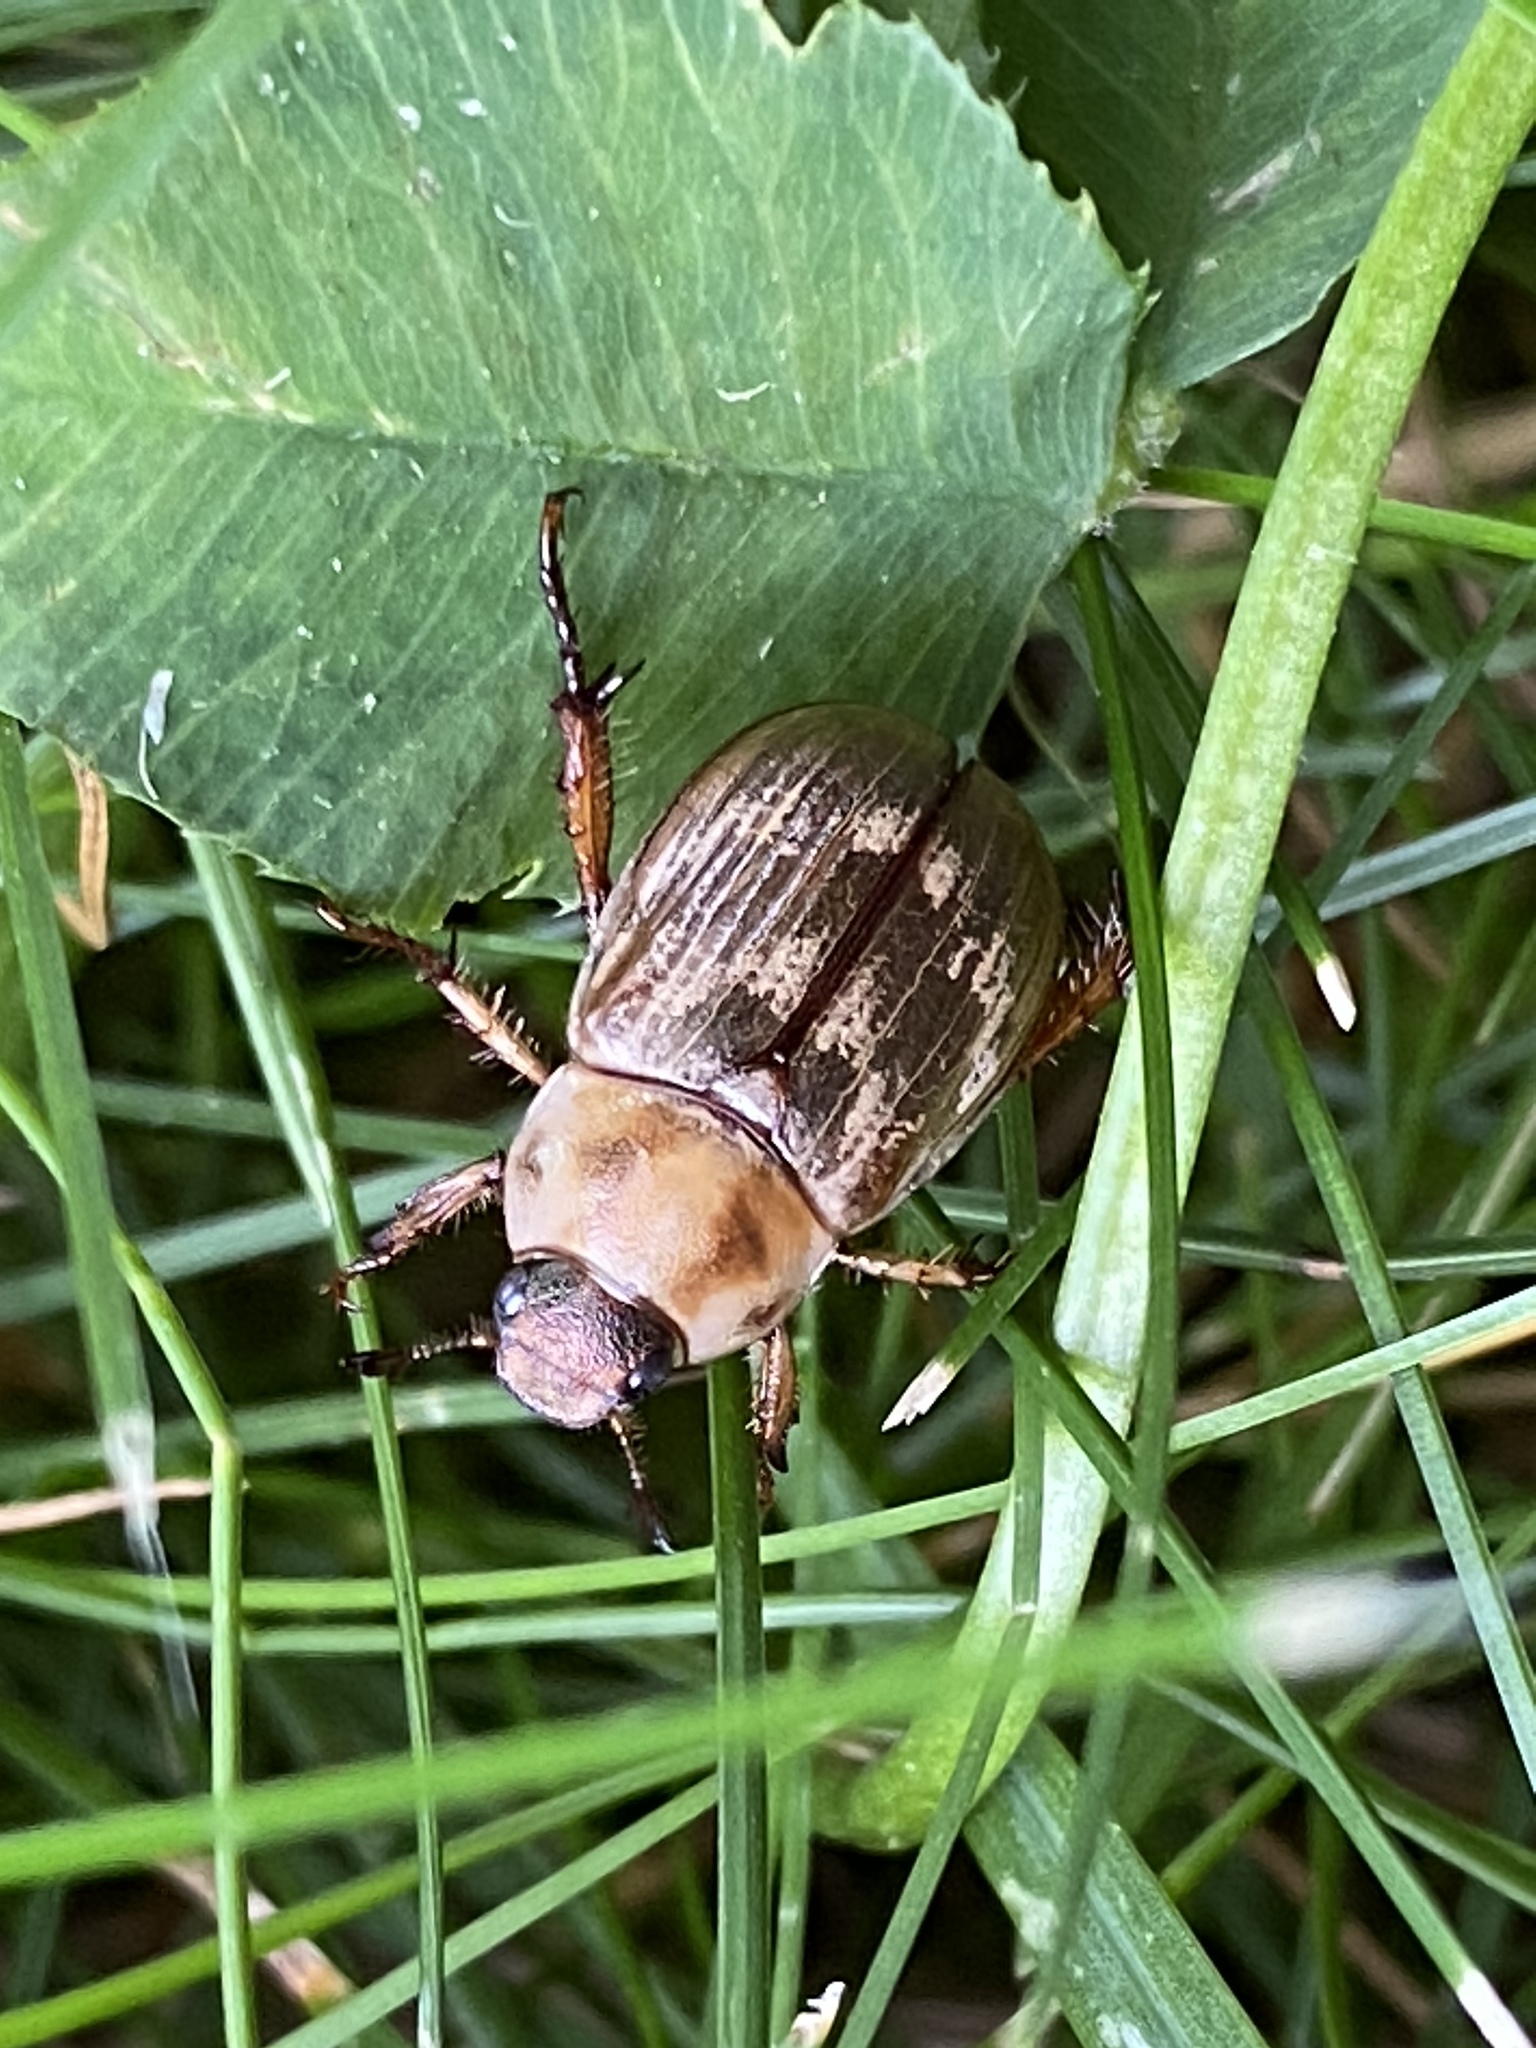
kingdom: Animalia
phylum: Arthropoda
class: Insecta
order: Coleoptera
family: Scarabaeidae
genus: Exomala
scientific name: Exomala orientalis
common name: Oriental beetle
